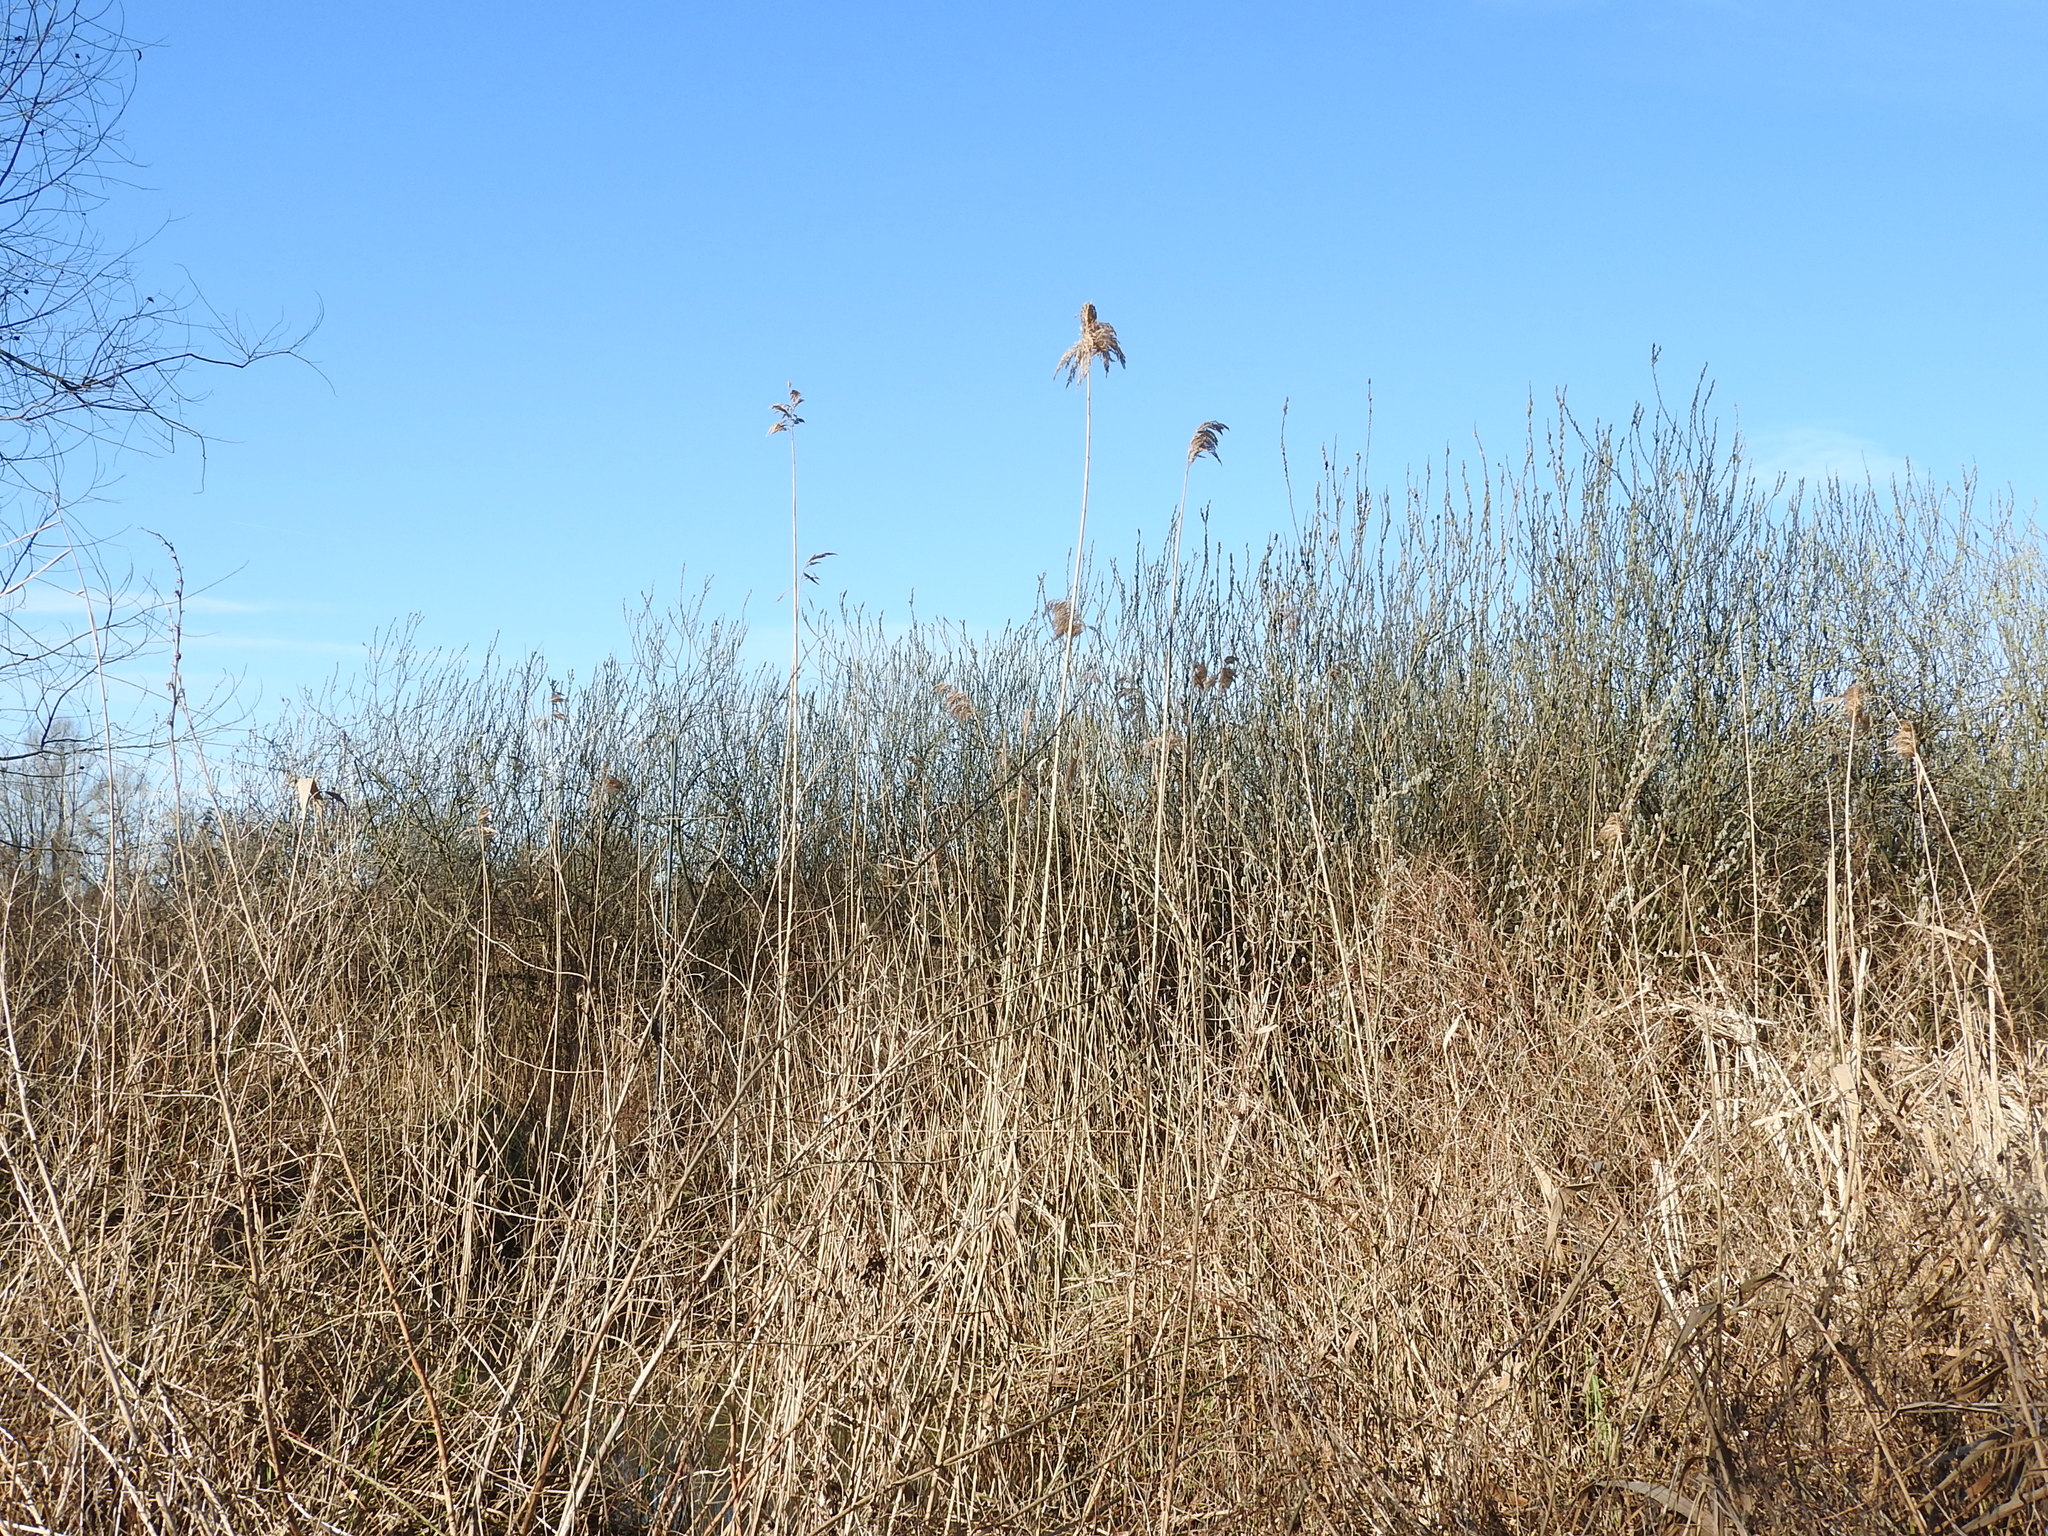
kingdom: Plantae
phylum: Tracheophyta
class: Liliopsida
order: Poales
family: Poaceae
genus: Phragmites
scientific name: Phragmites australis
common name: Common reed
